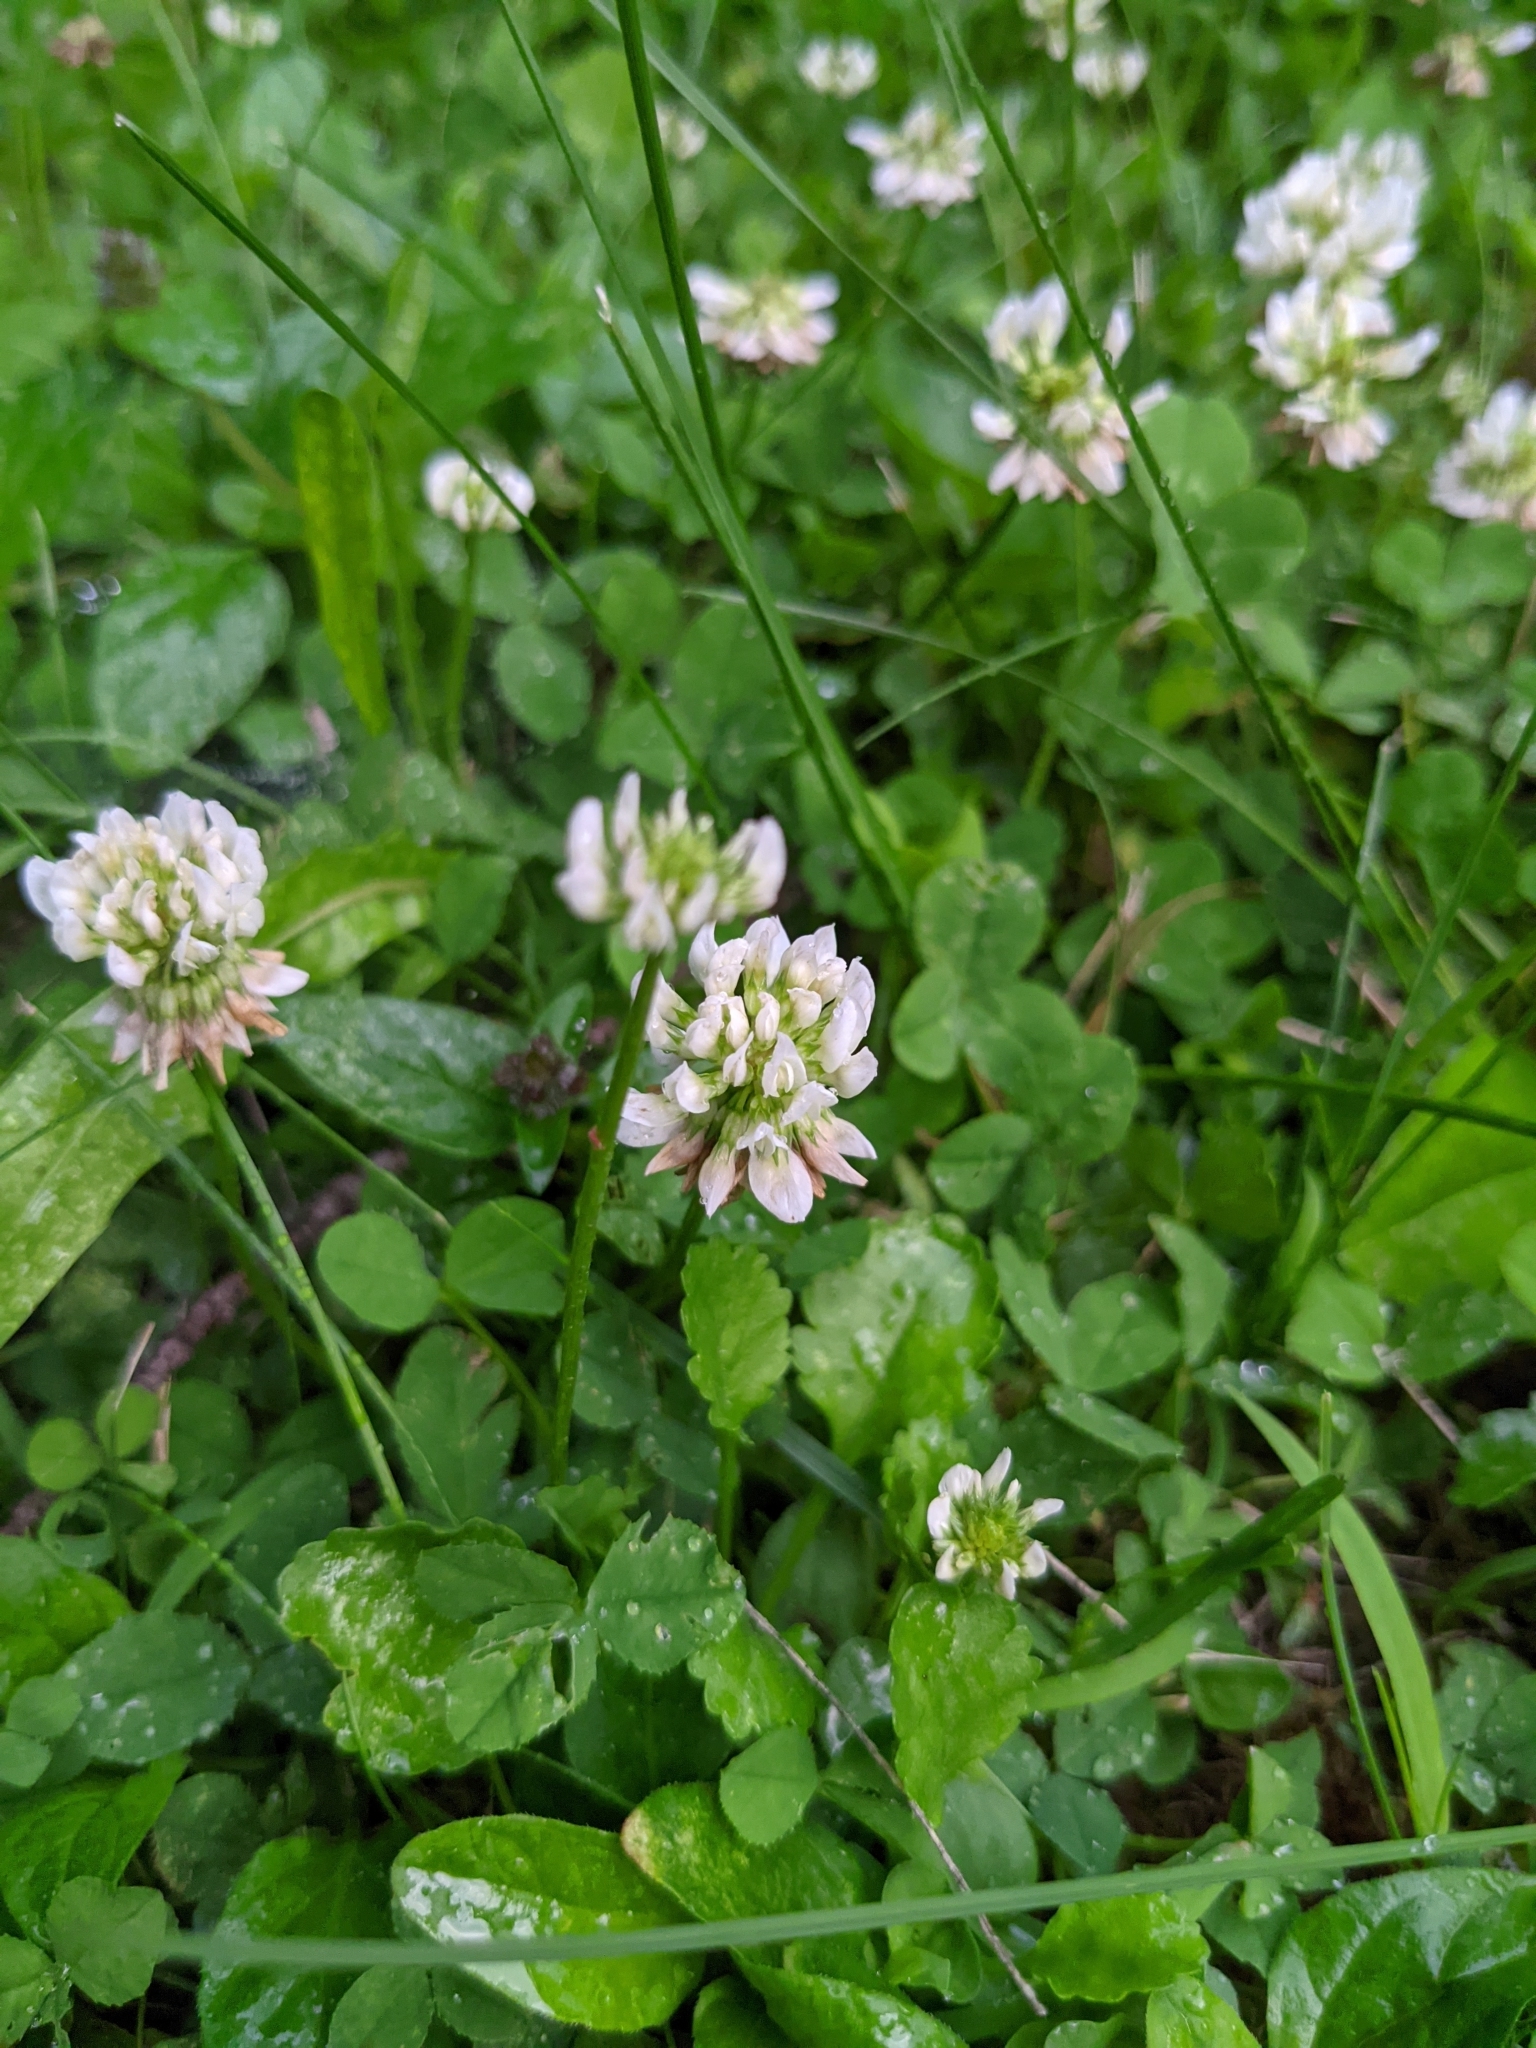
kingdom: Plantae
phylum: Tracheophyta
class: Magnoliopsida
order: Fabales
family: Fabaceae
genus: Trifolium
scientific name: Trifolium repens
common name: White clover
